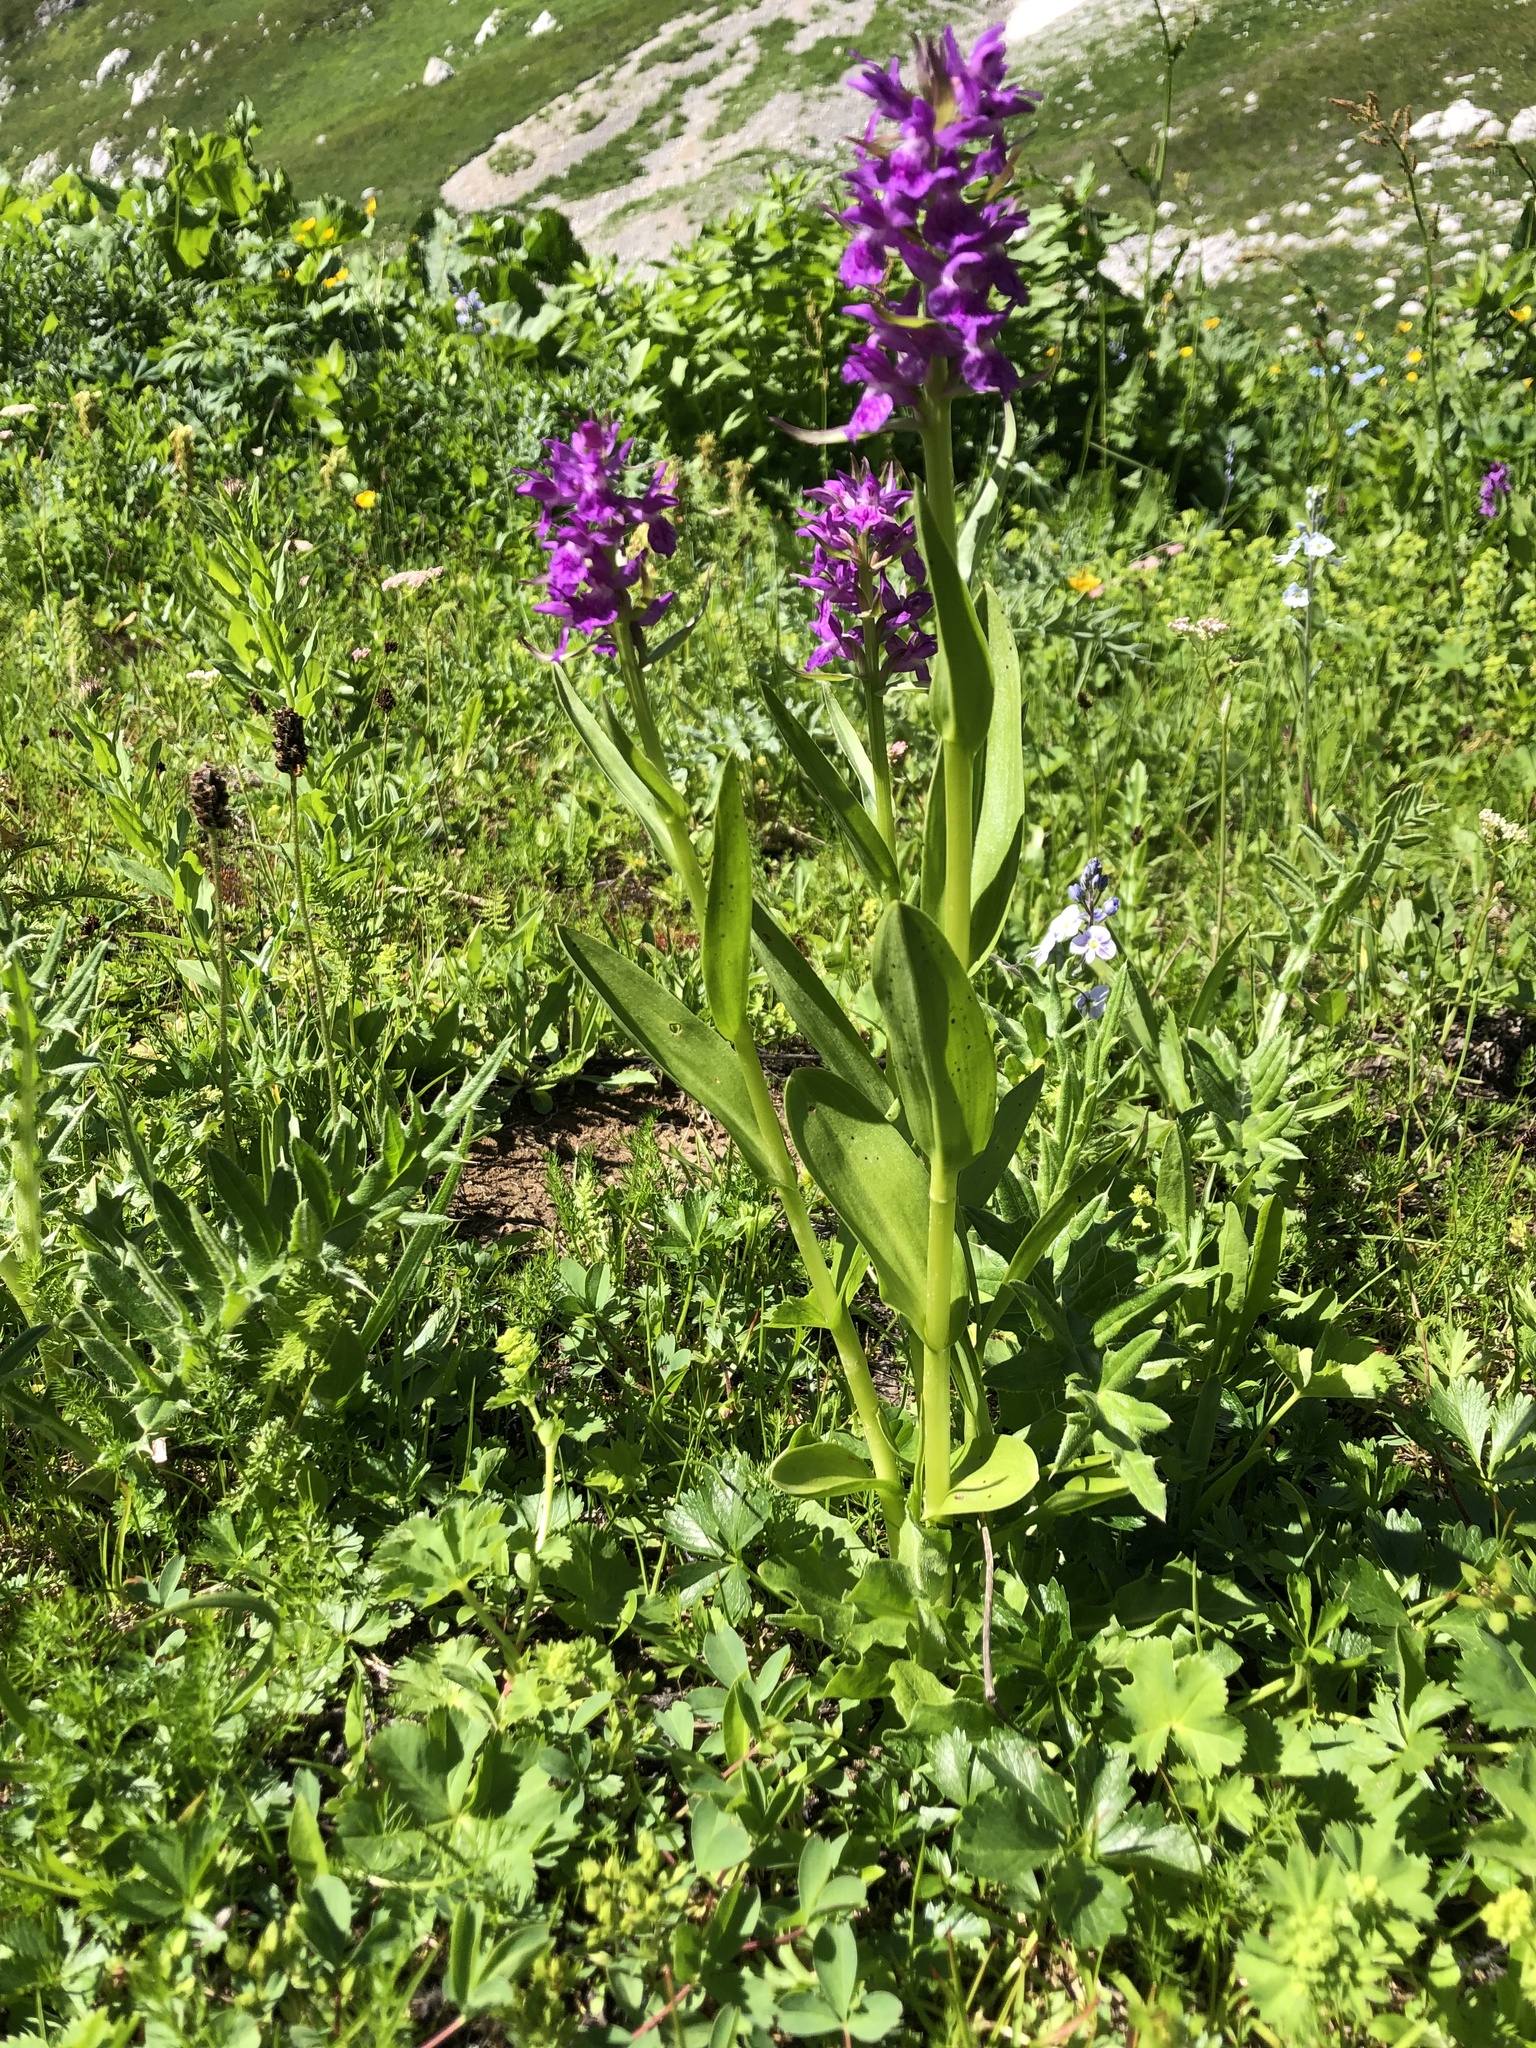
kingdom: Plantae
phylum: Tracheophyta
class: Liliopsida
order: Asparagales
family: Orchidaceae
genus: Dactylorhiza
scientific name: Dactylorhiza euxina
